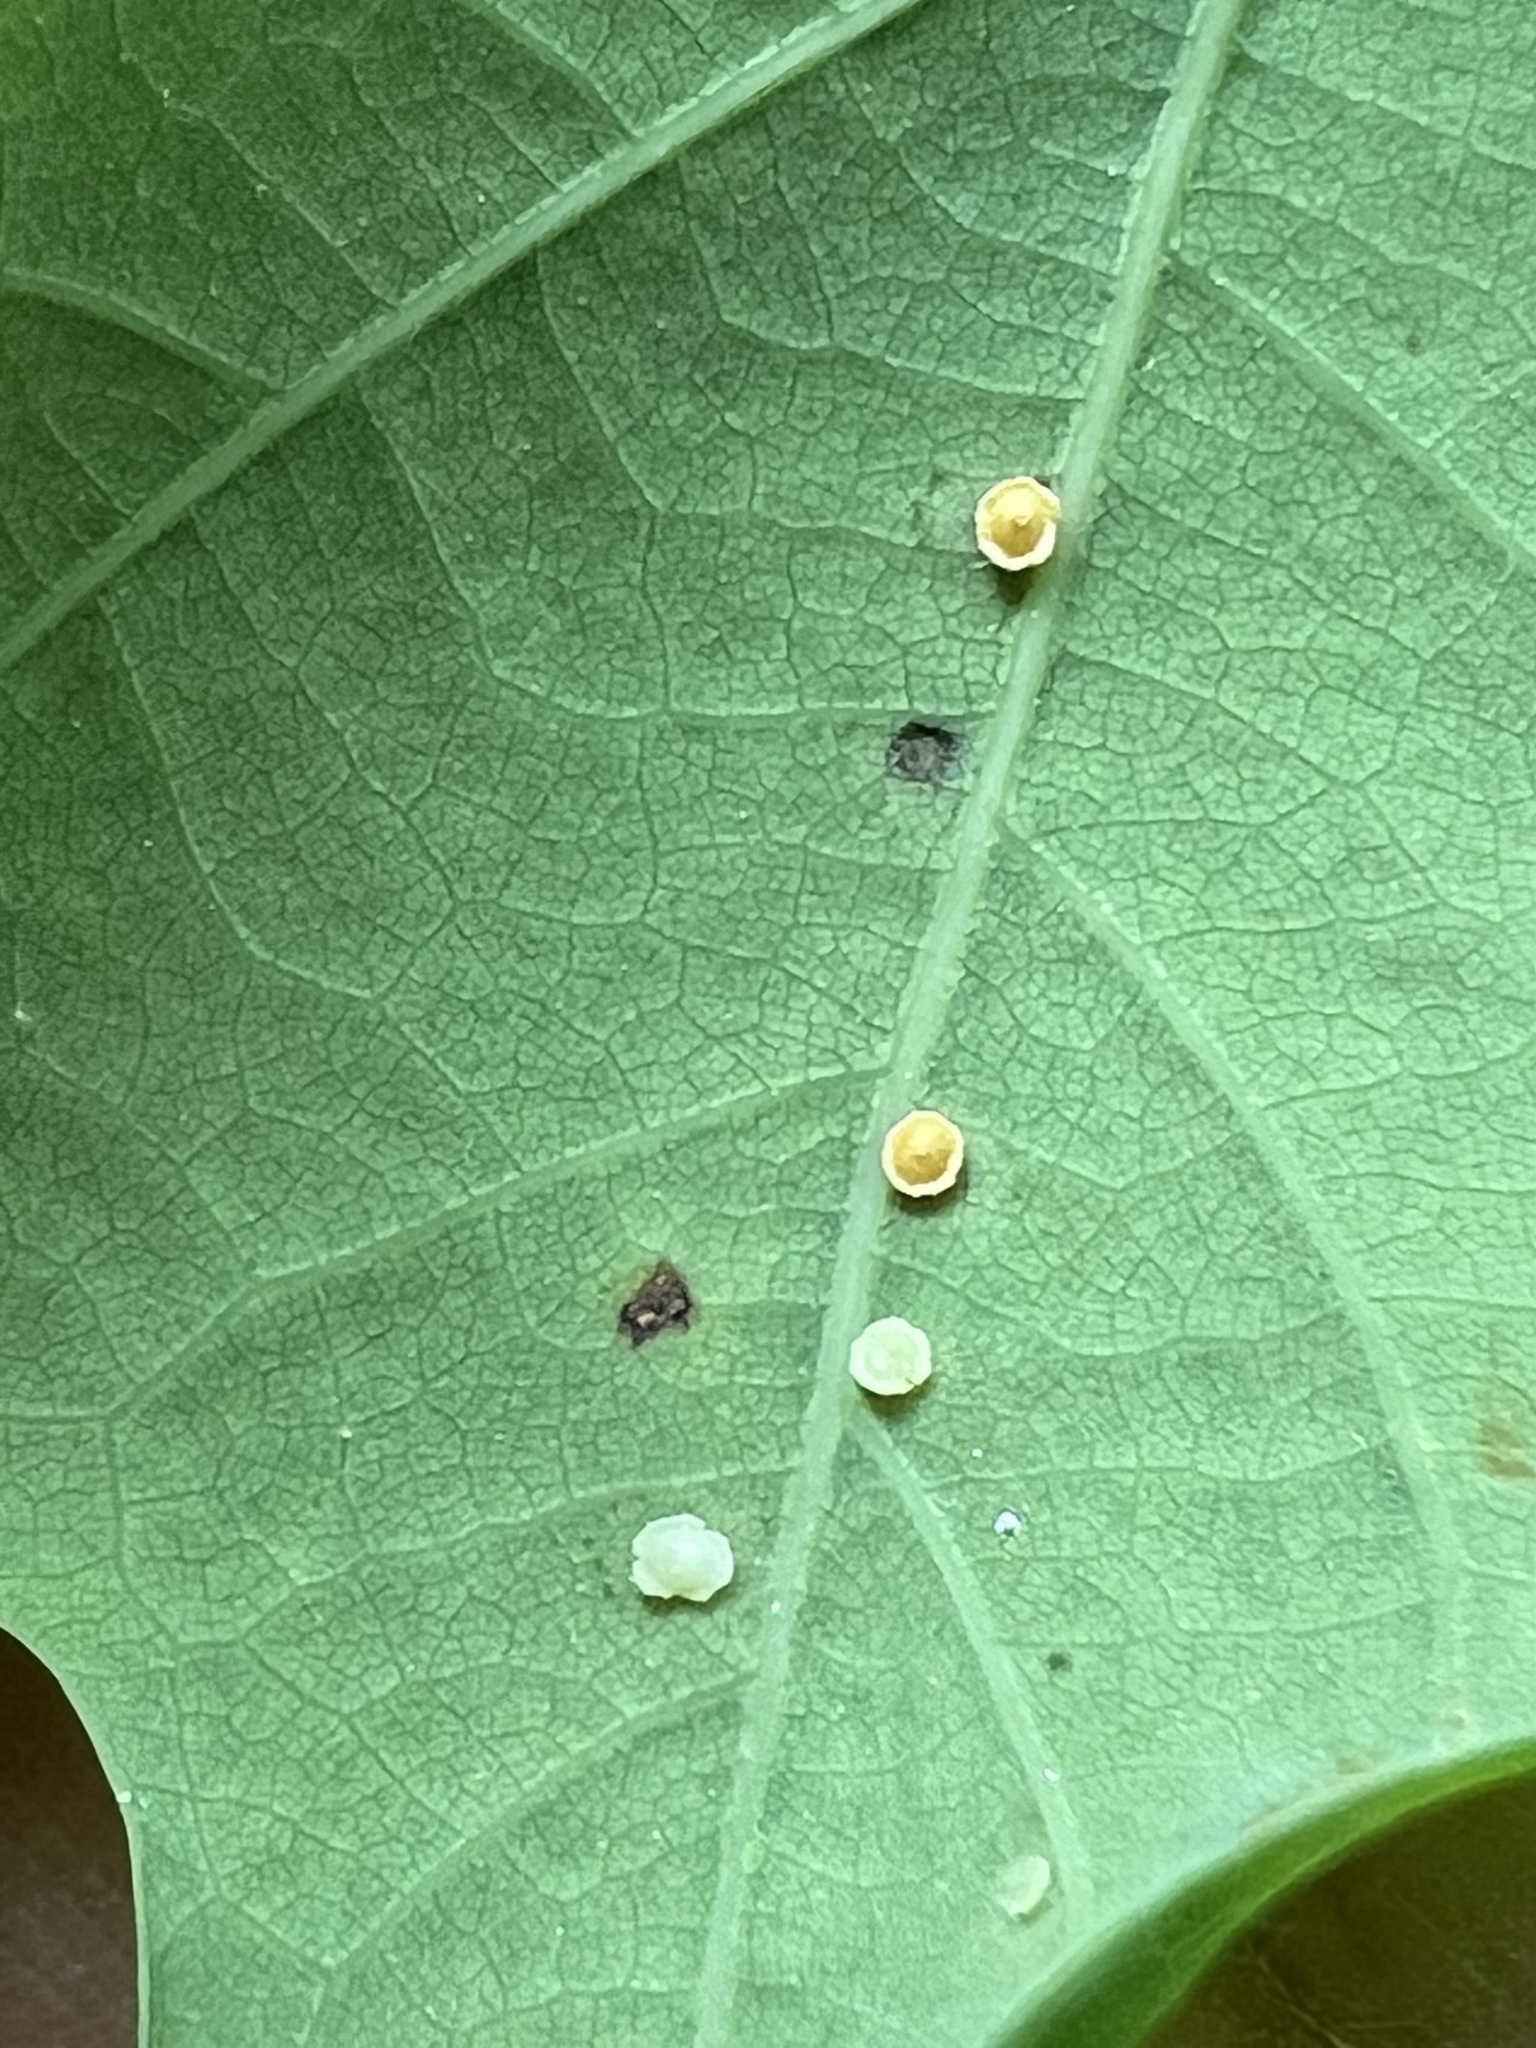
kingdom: Animalia
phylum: Arthropoda
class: Insecta
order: Hymenoptera
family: Cynipidae
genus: Neuroterus
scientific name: Neuroterus
